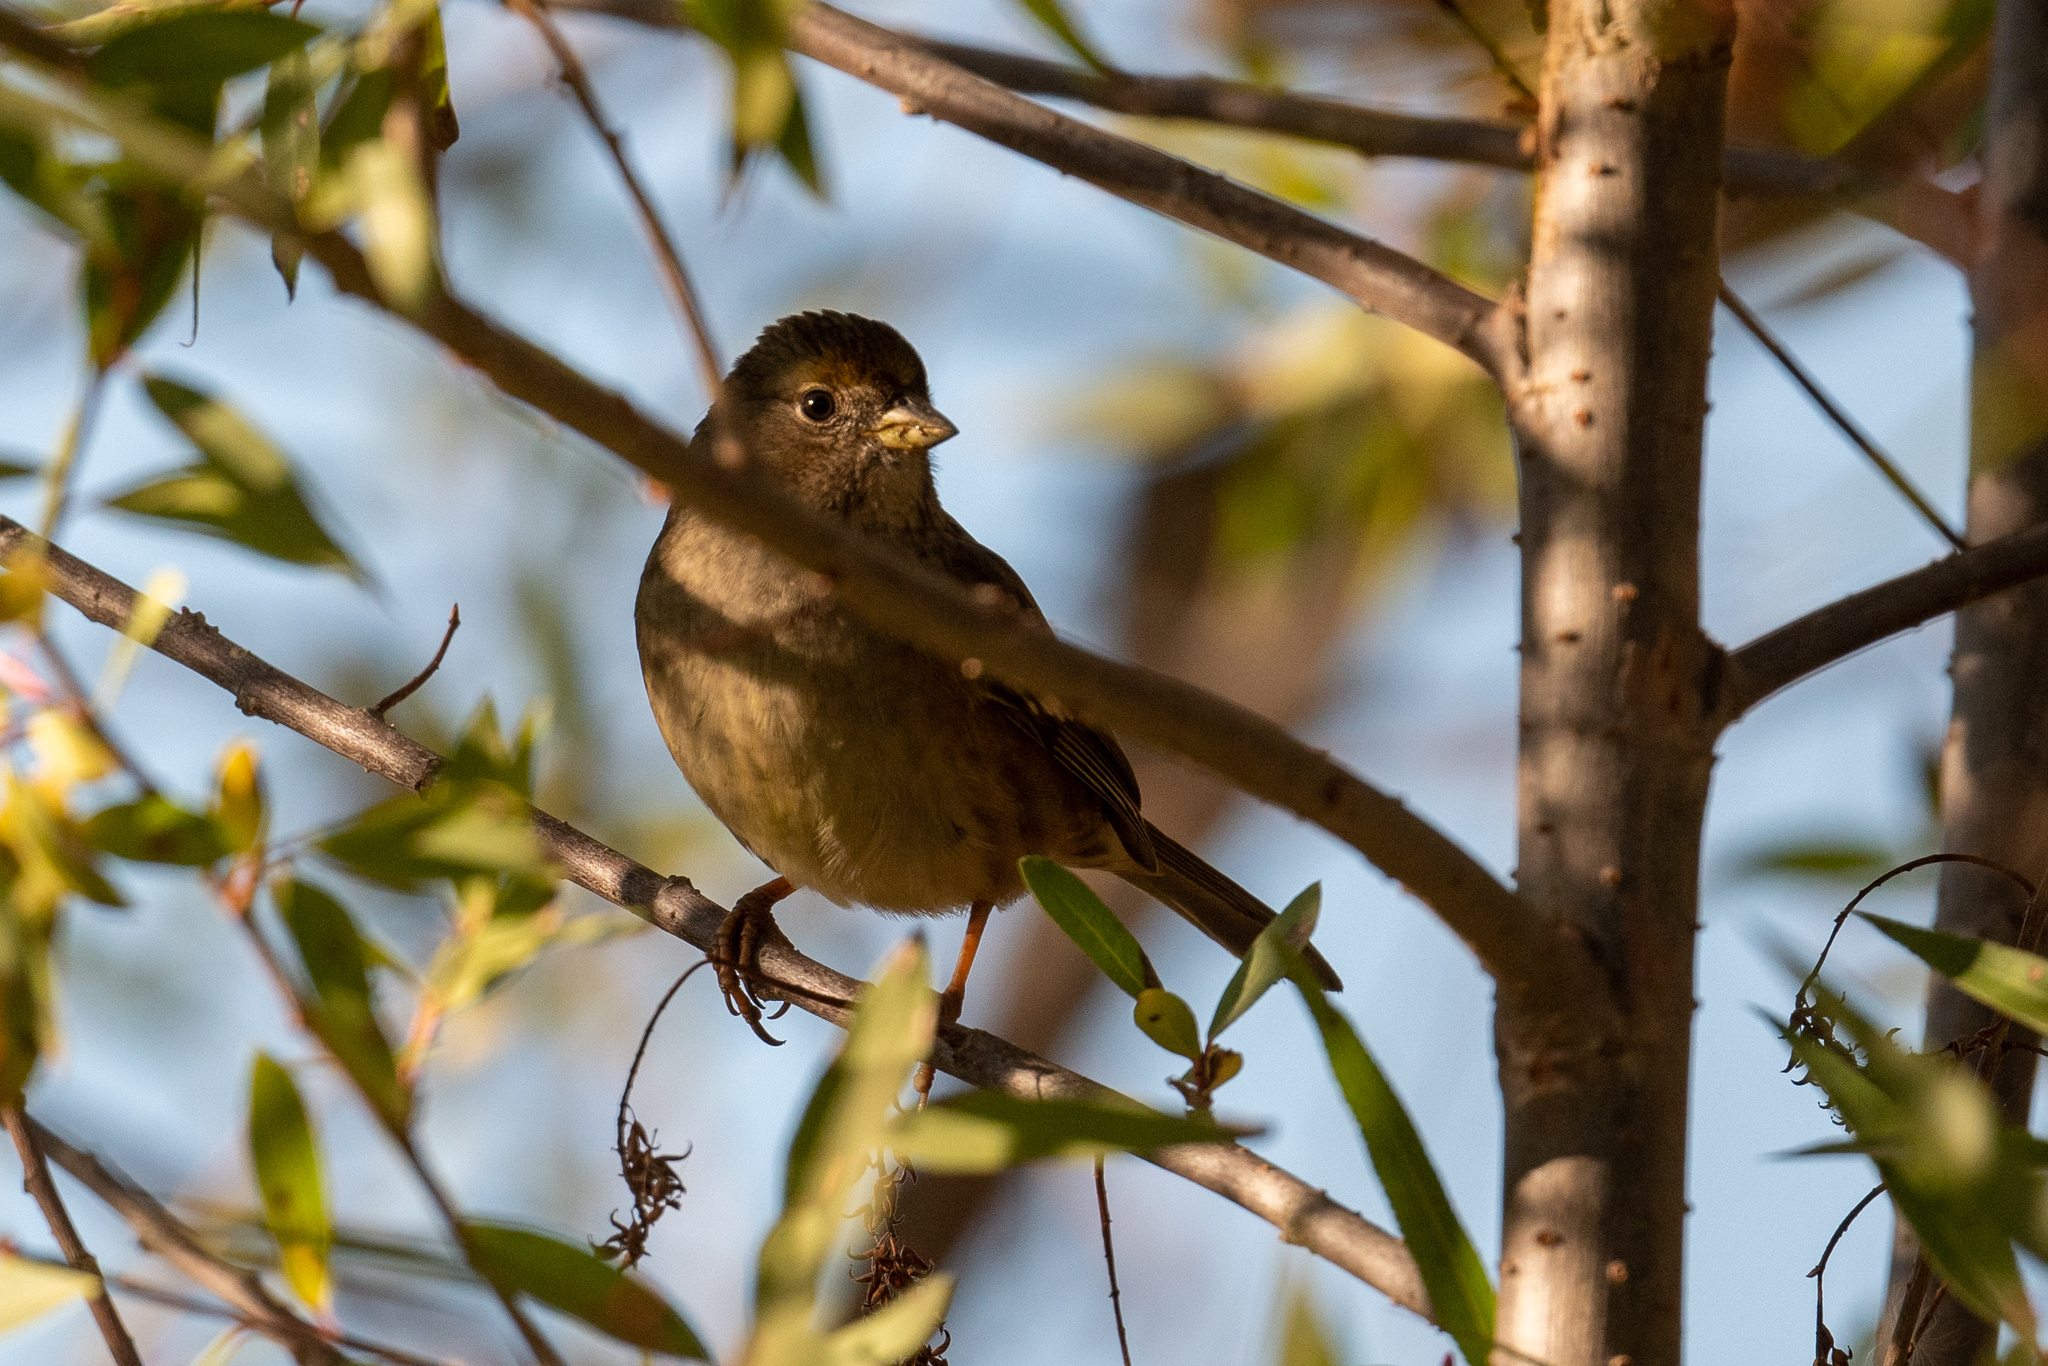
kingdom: Animalia
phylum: Chordata
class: Aves
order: Passeriformes
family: Passerellidae
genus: Zonotrichia
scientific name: Zonotrichia atricapilla
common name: Golden-crowned sparrow
